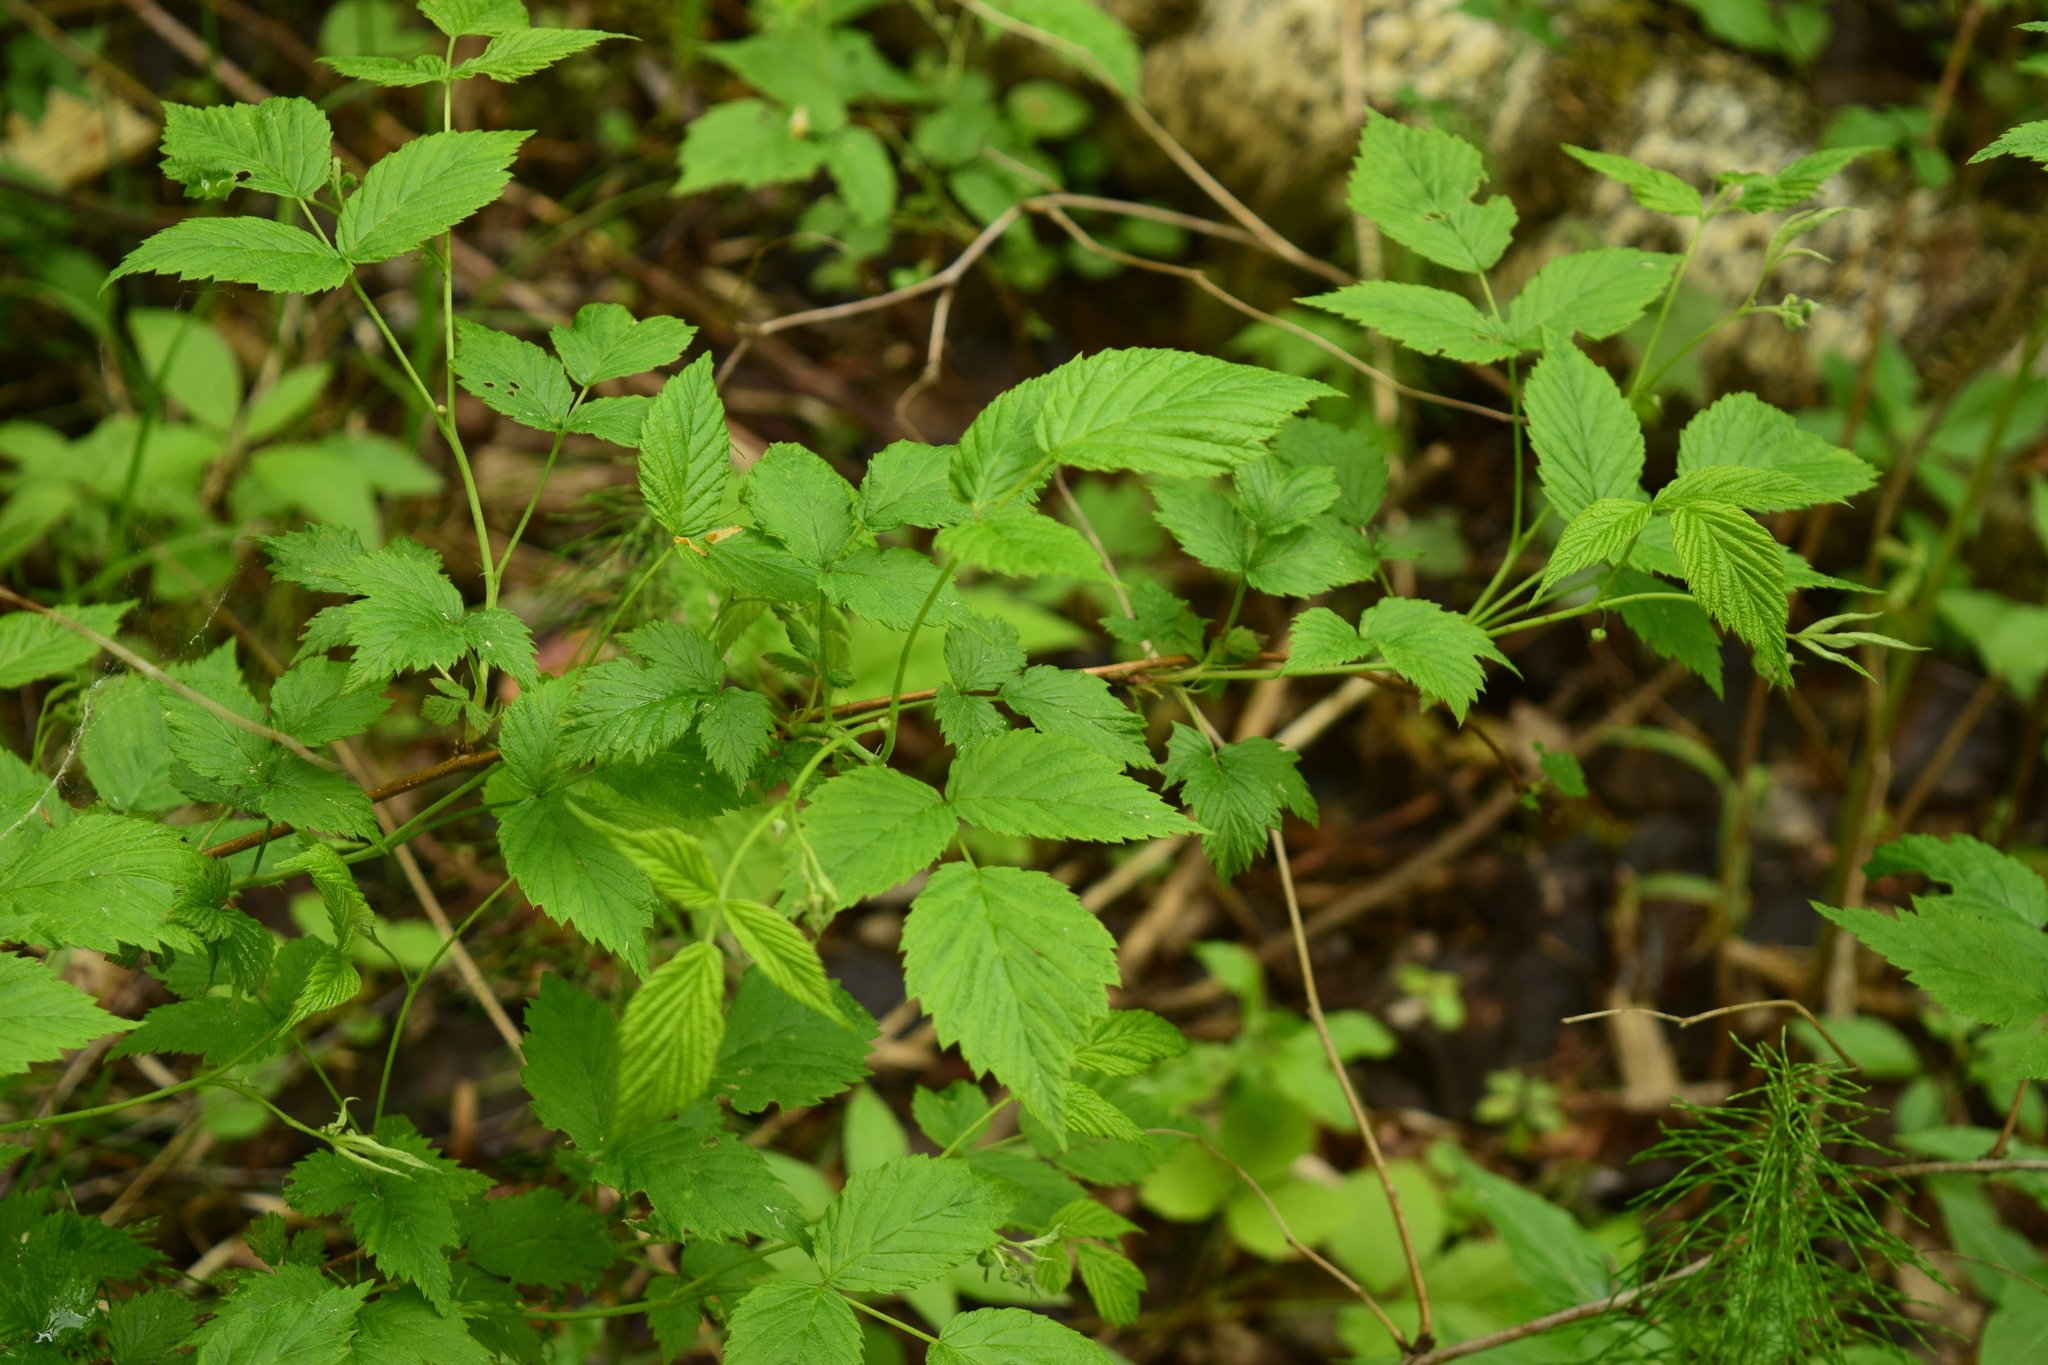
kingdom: Plantae
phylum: Tracheophyta
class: Magnoliopsida
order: Rosales
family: Rosaceae
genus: Rubus
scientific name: Rubus idaeus
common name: Raspberry
